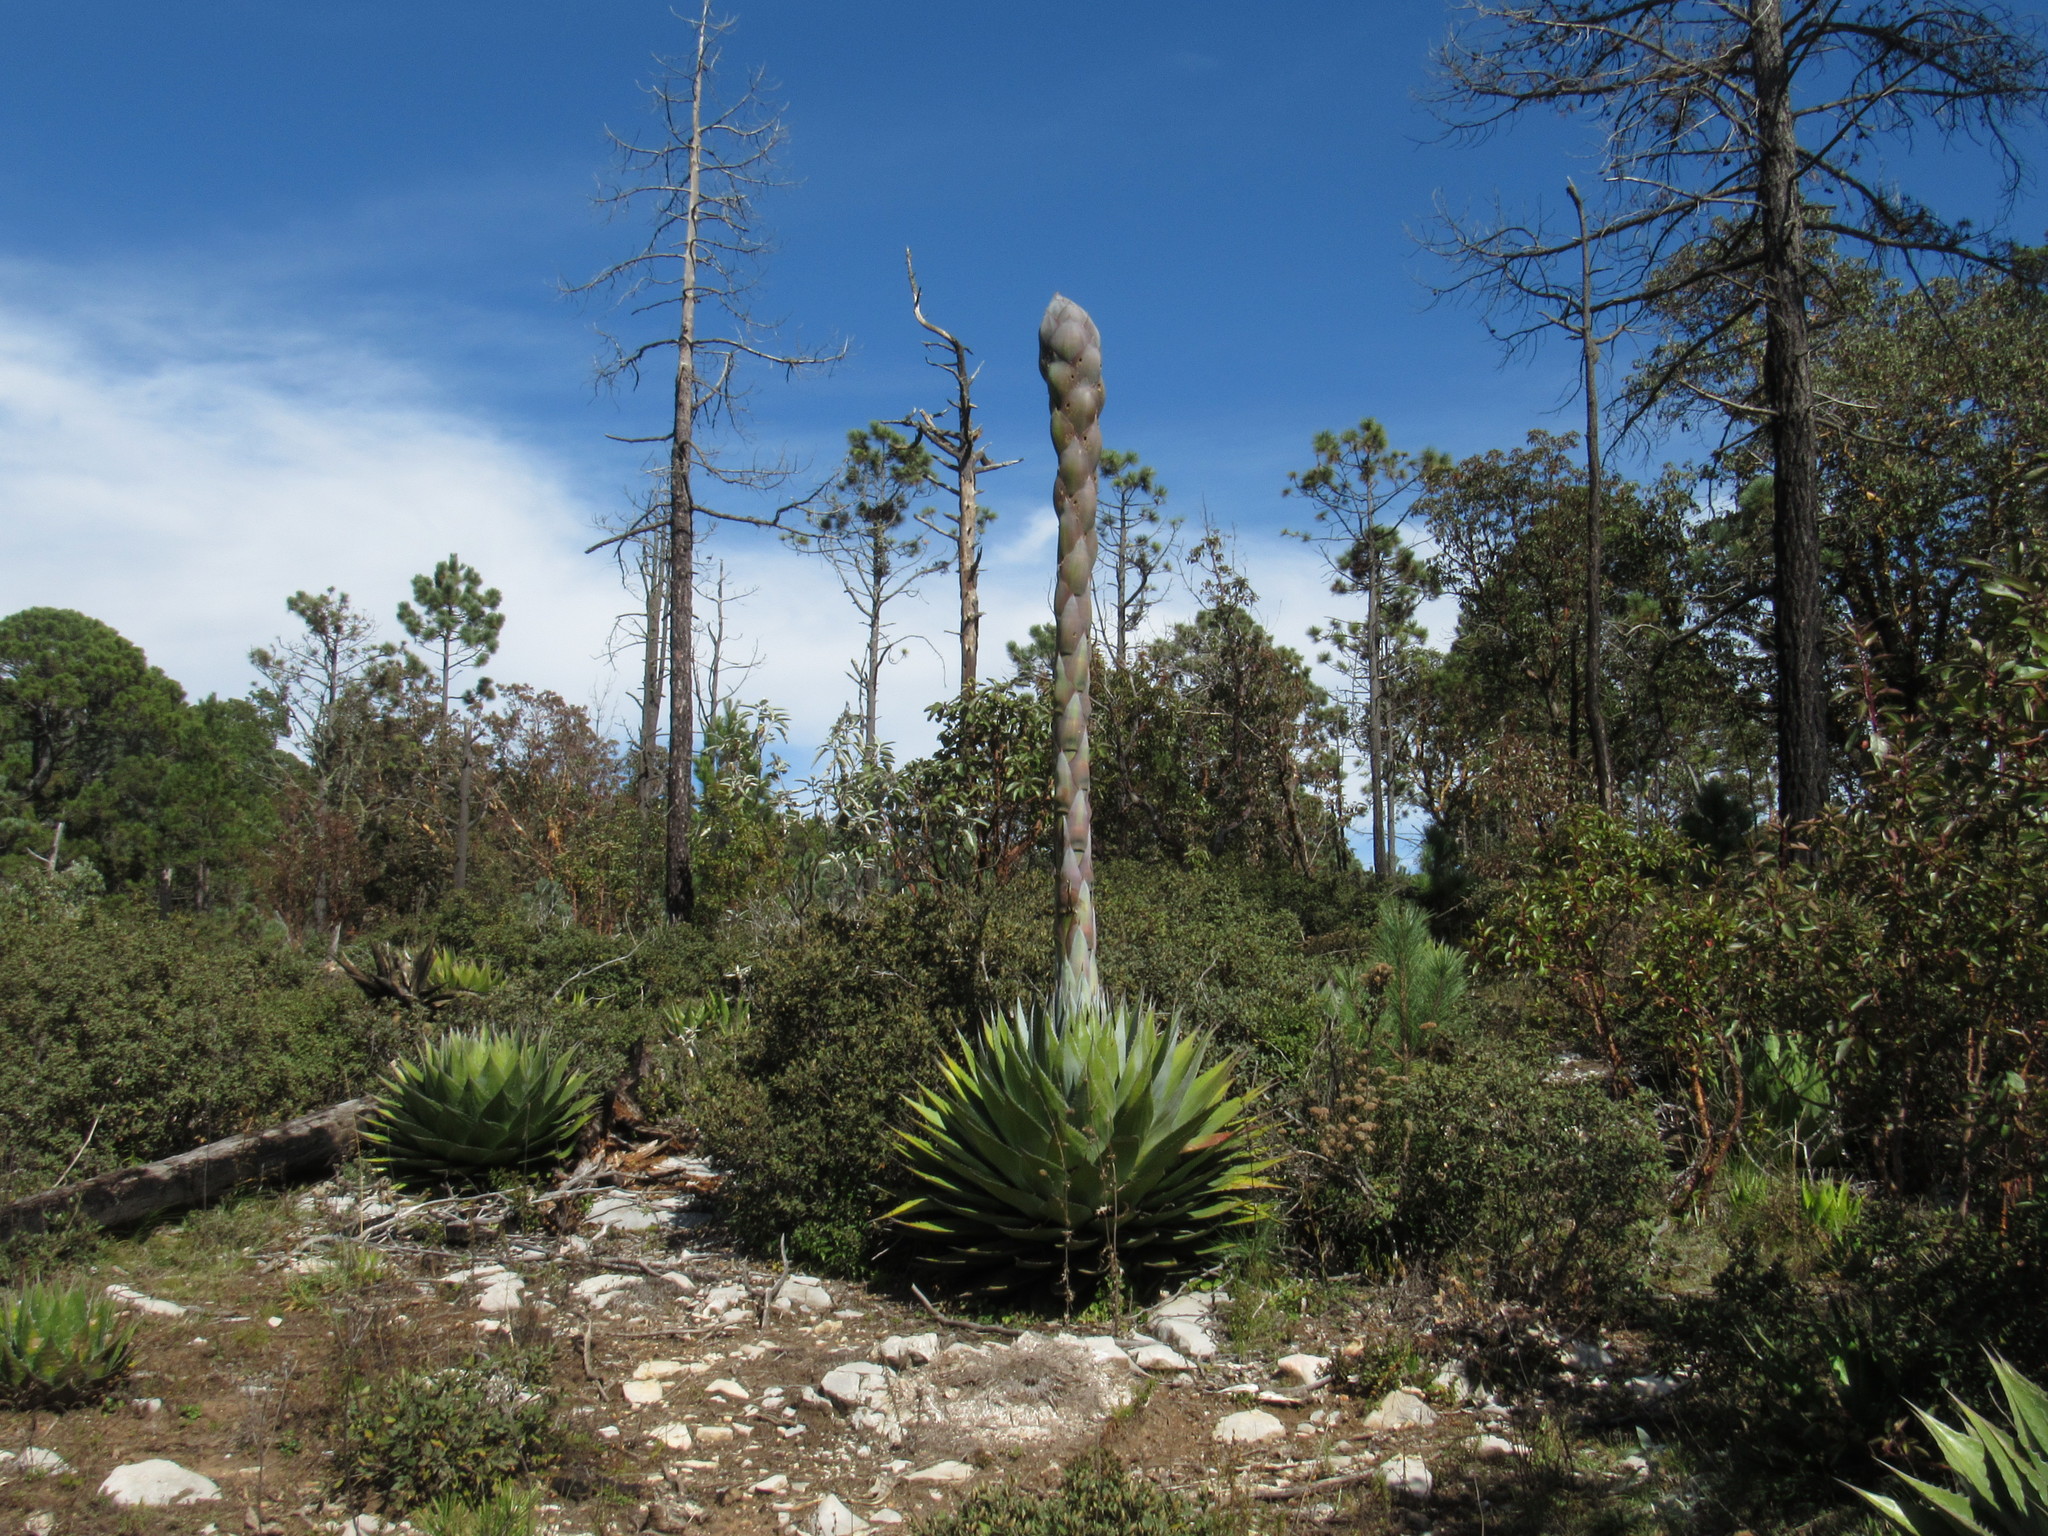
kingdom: Plantae
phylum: Tracheophyta
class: Liliopsida
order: Asparagales
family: Asparagaceae
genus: Agave
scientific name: Agave montana
